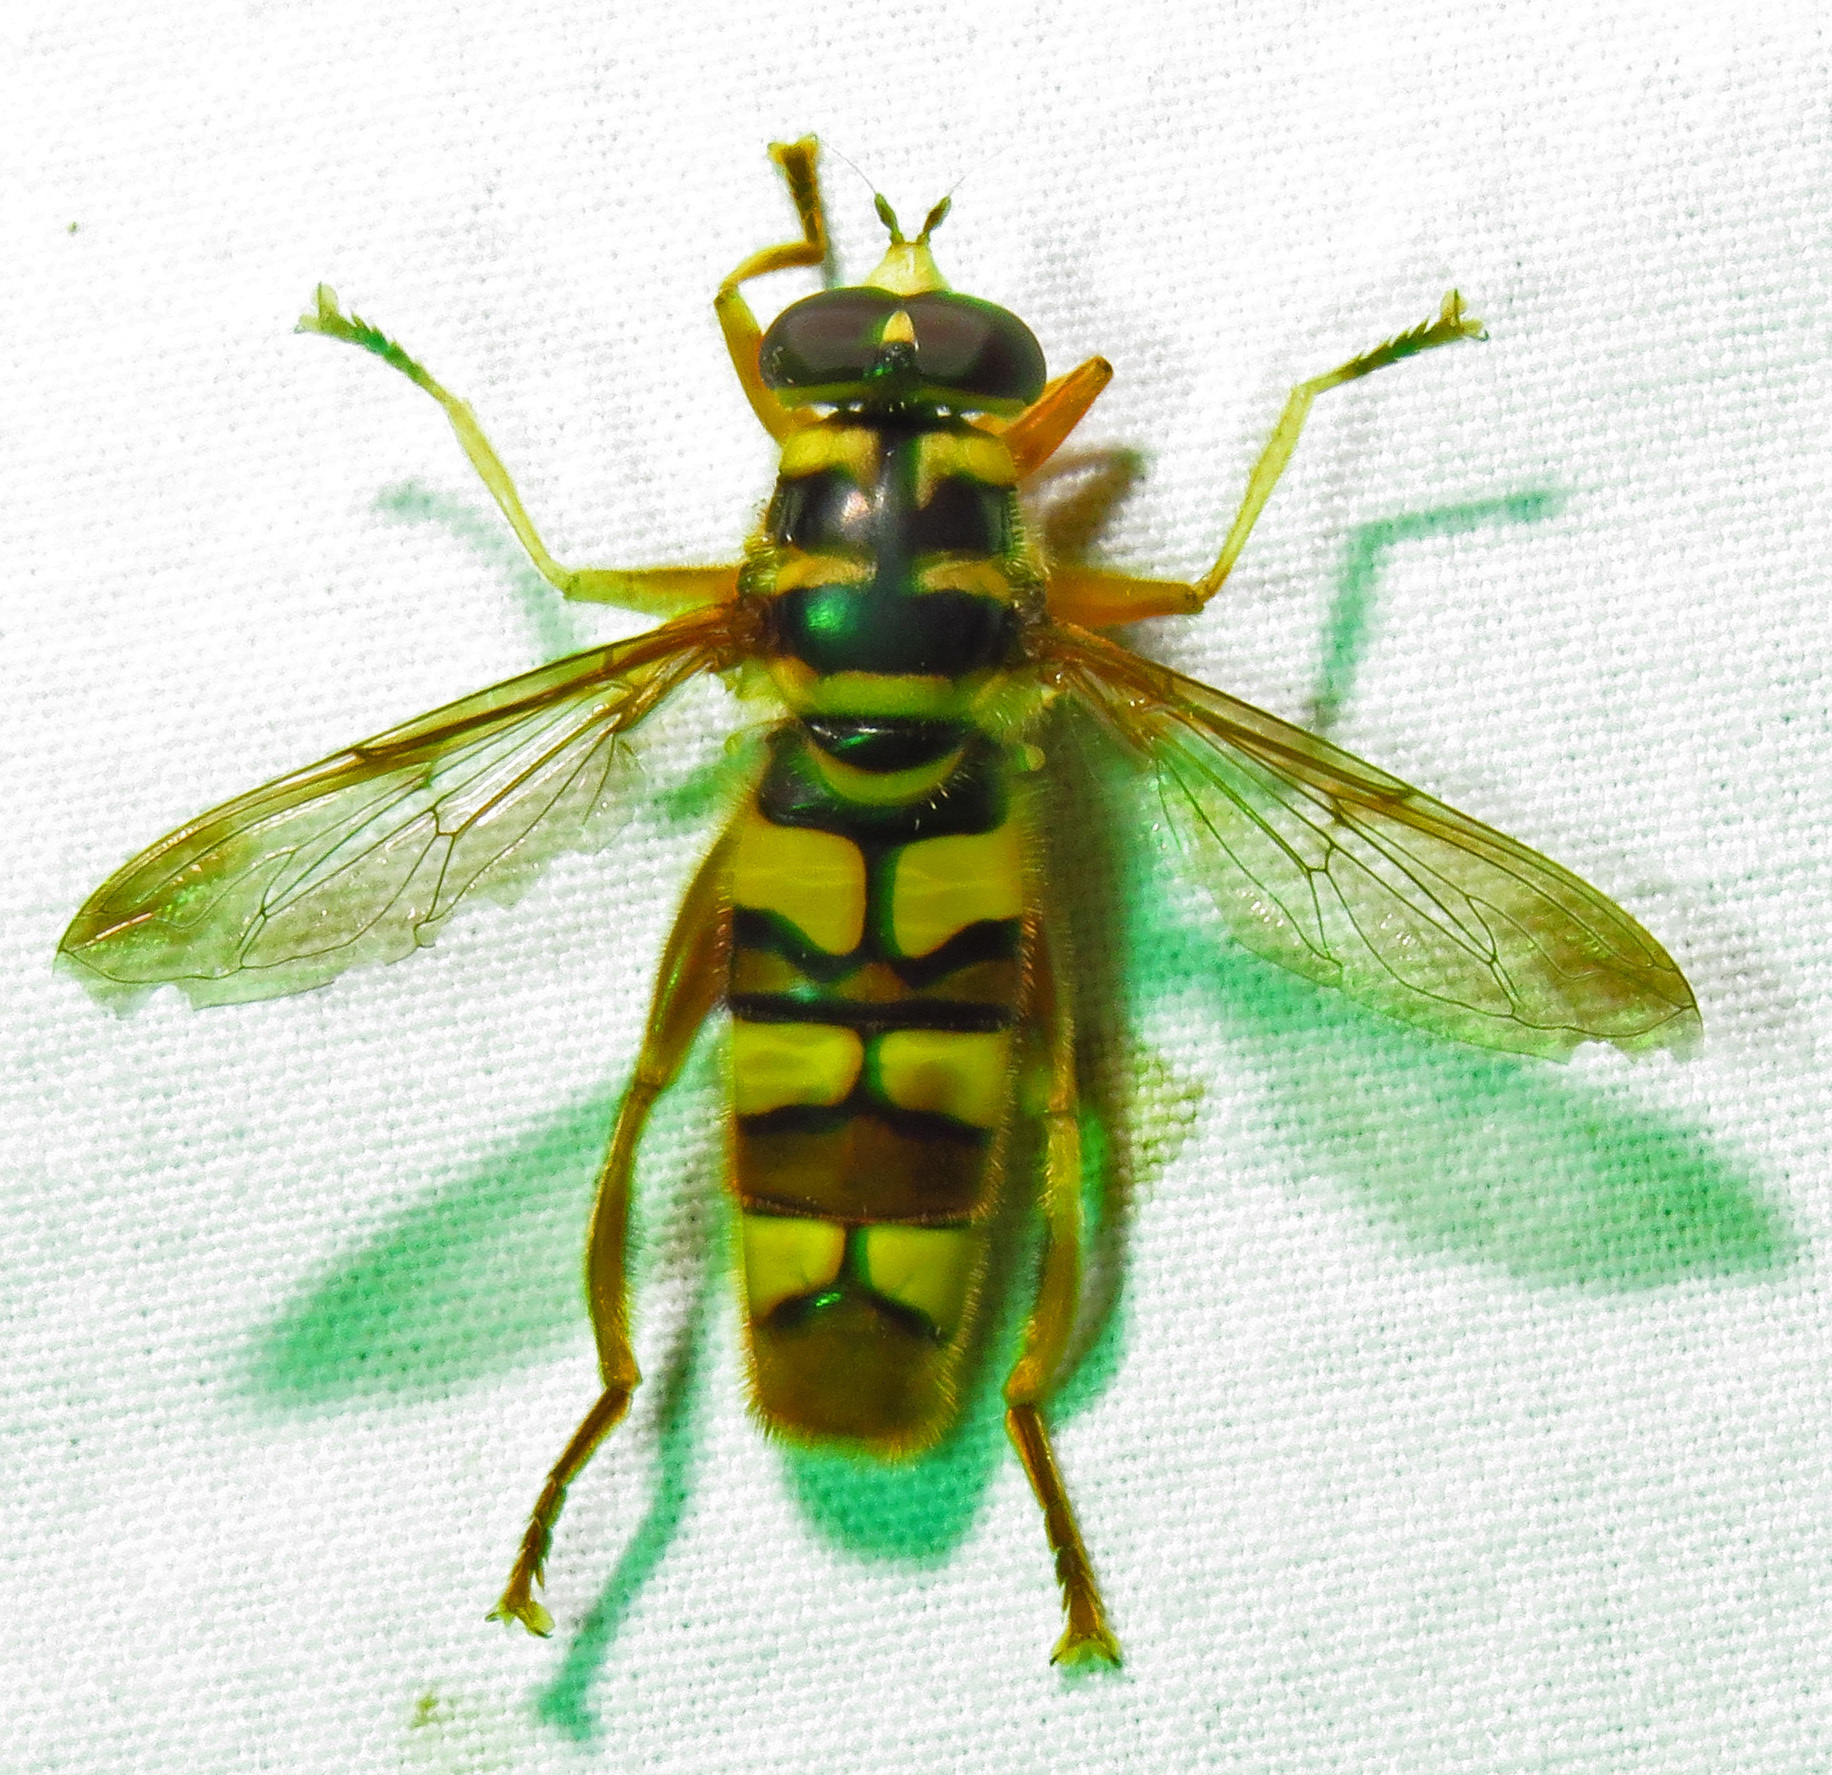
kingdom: Animalia
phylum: Arthropoda
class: Insecta
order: Diptera
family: Syrphidae
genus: Milesia
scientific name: Milesia virginiensis
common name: Virginia giant
